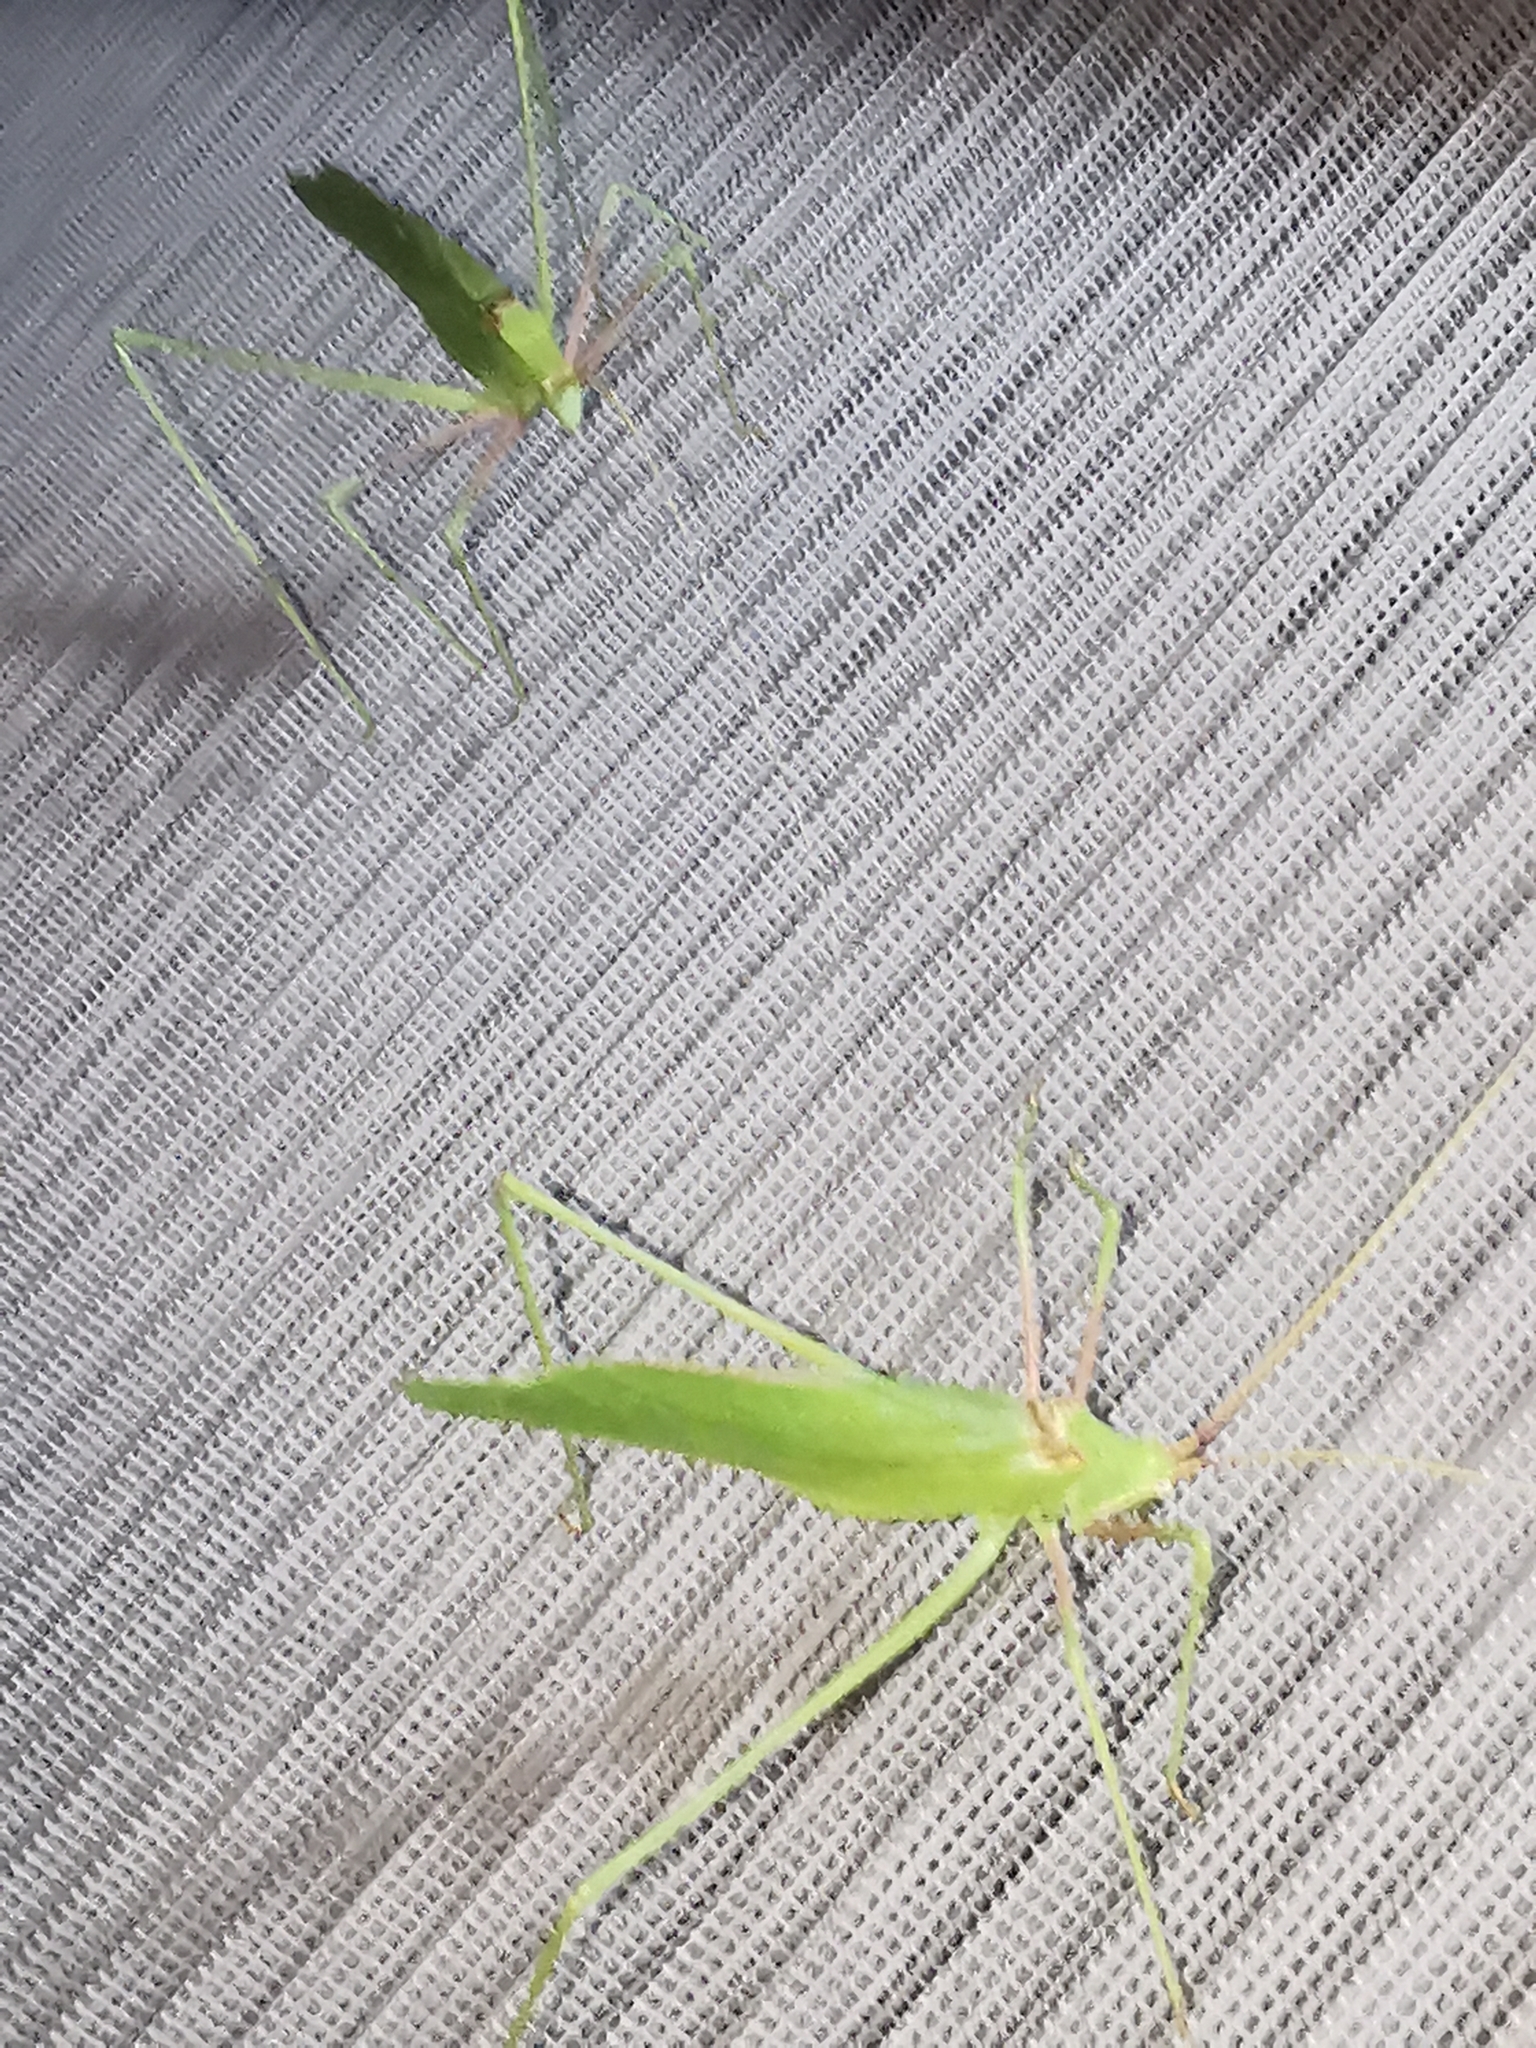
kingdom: Animalia
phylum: Arthropoda
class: Insecta
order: Orthoptera
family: Tettigoniidae
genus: Acrometopa
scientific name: Acrometopa
